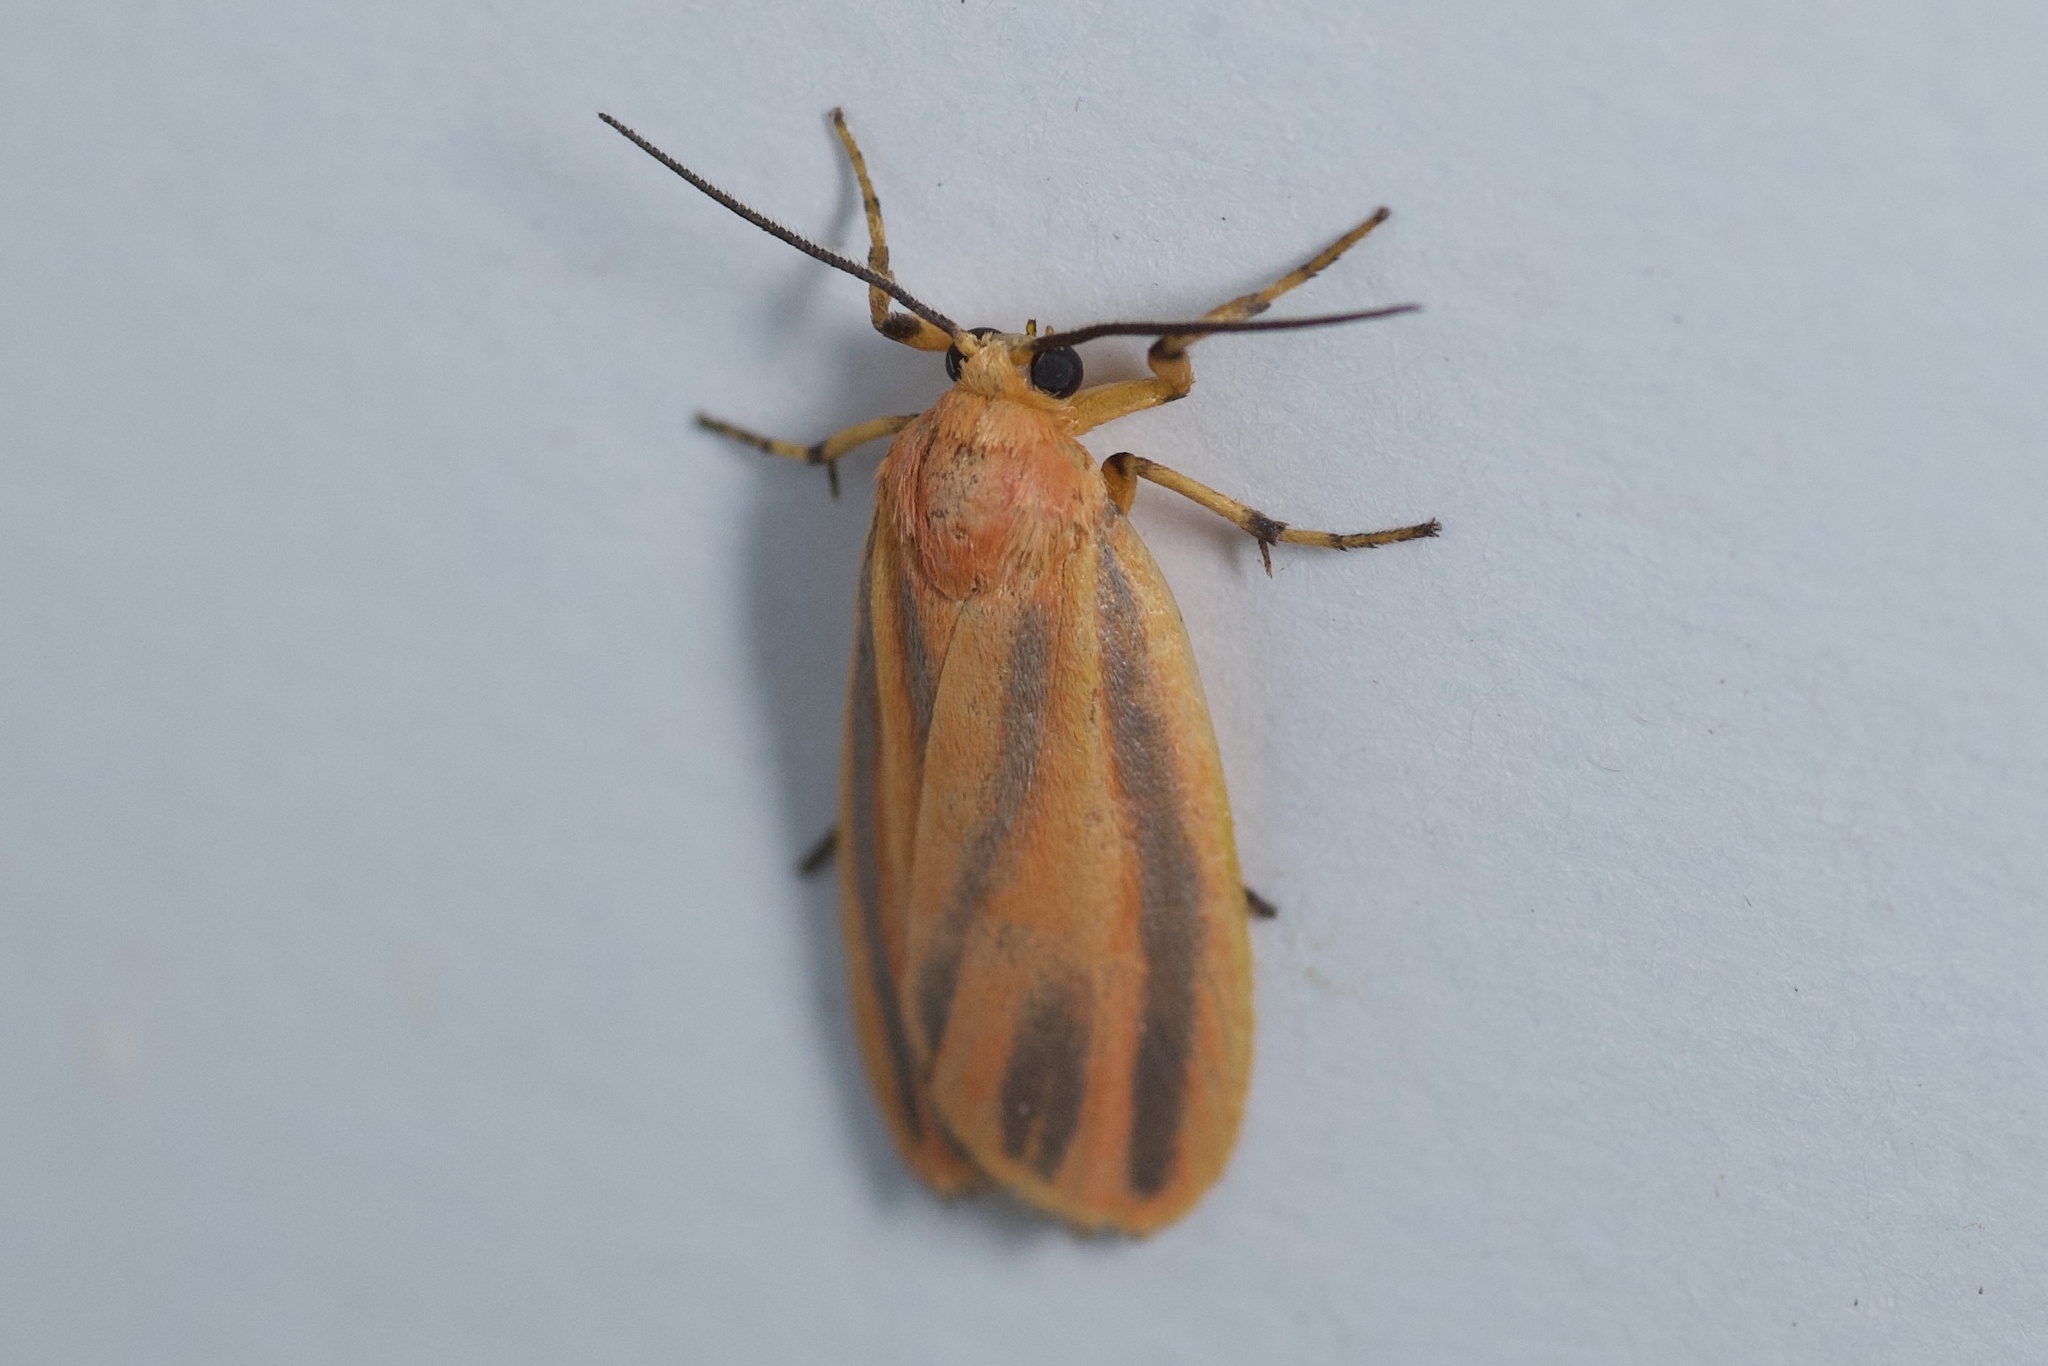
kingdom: Animalia
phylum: Arthropoda
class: Insecta
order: Lepidoptera
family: Erebidae
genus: Hypoprepia
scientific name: Hypoprepia fucosa
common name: Painted lichen moth
